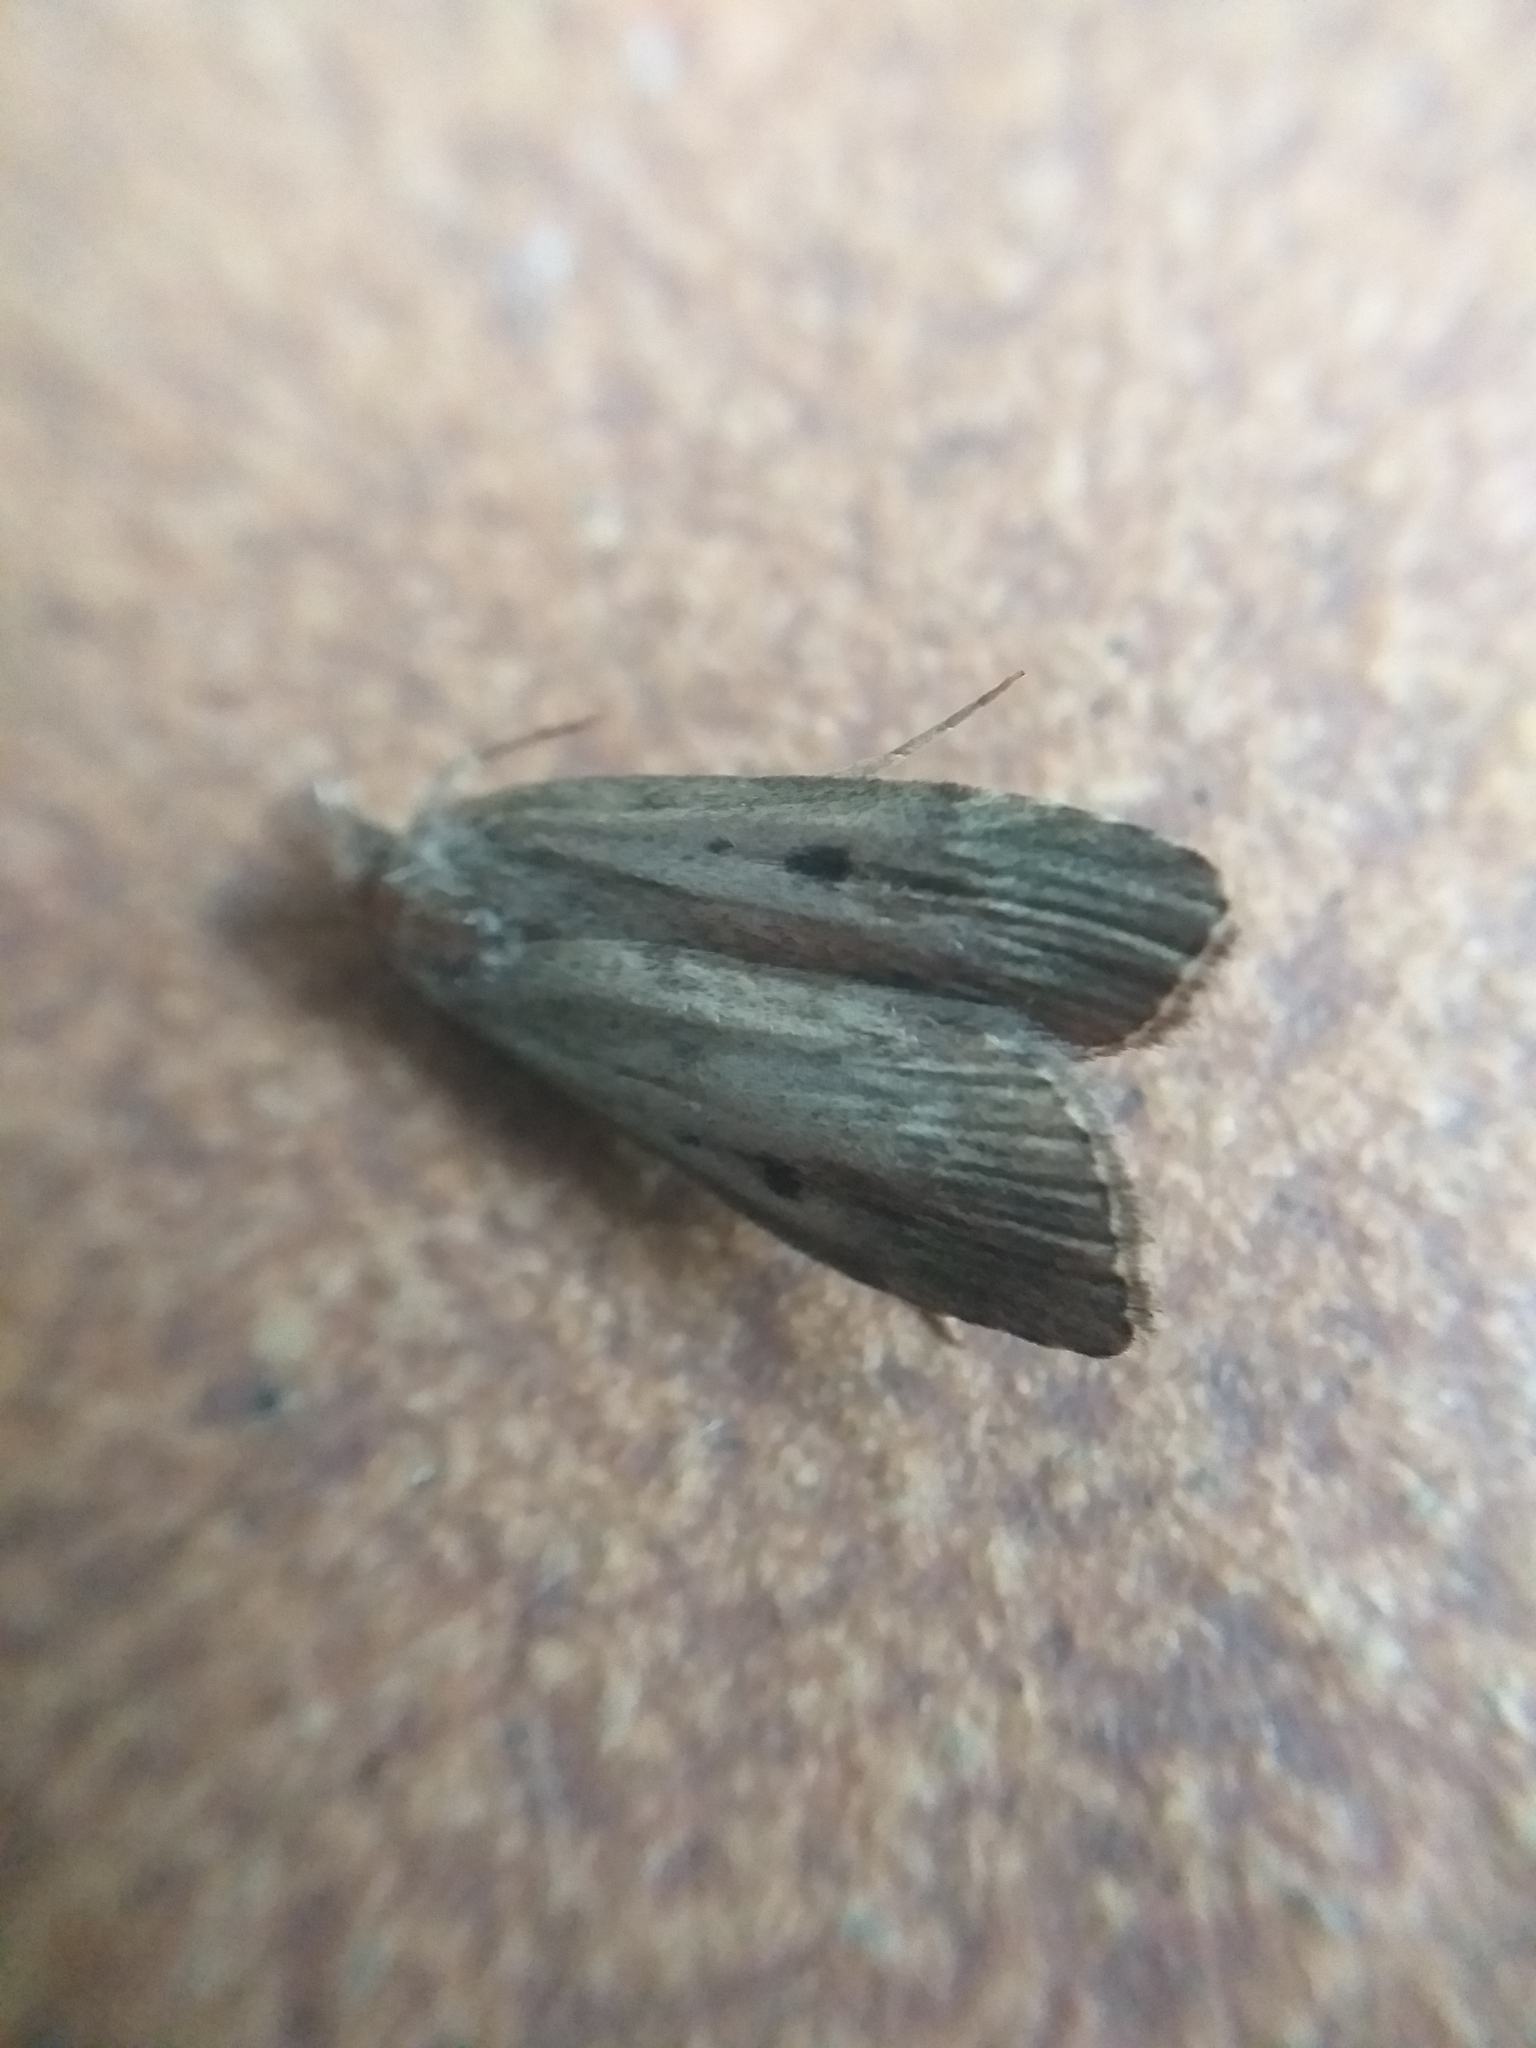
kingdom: Animalia
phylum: Arthropoda
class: Insecta
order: Lepidoptera
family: Pyralidae
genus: Aphomia
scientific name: Aphomia sociella
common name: Bee moth
